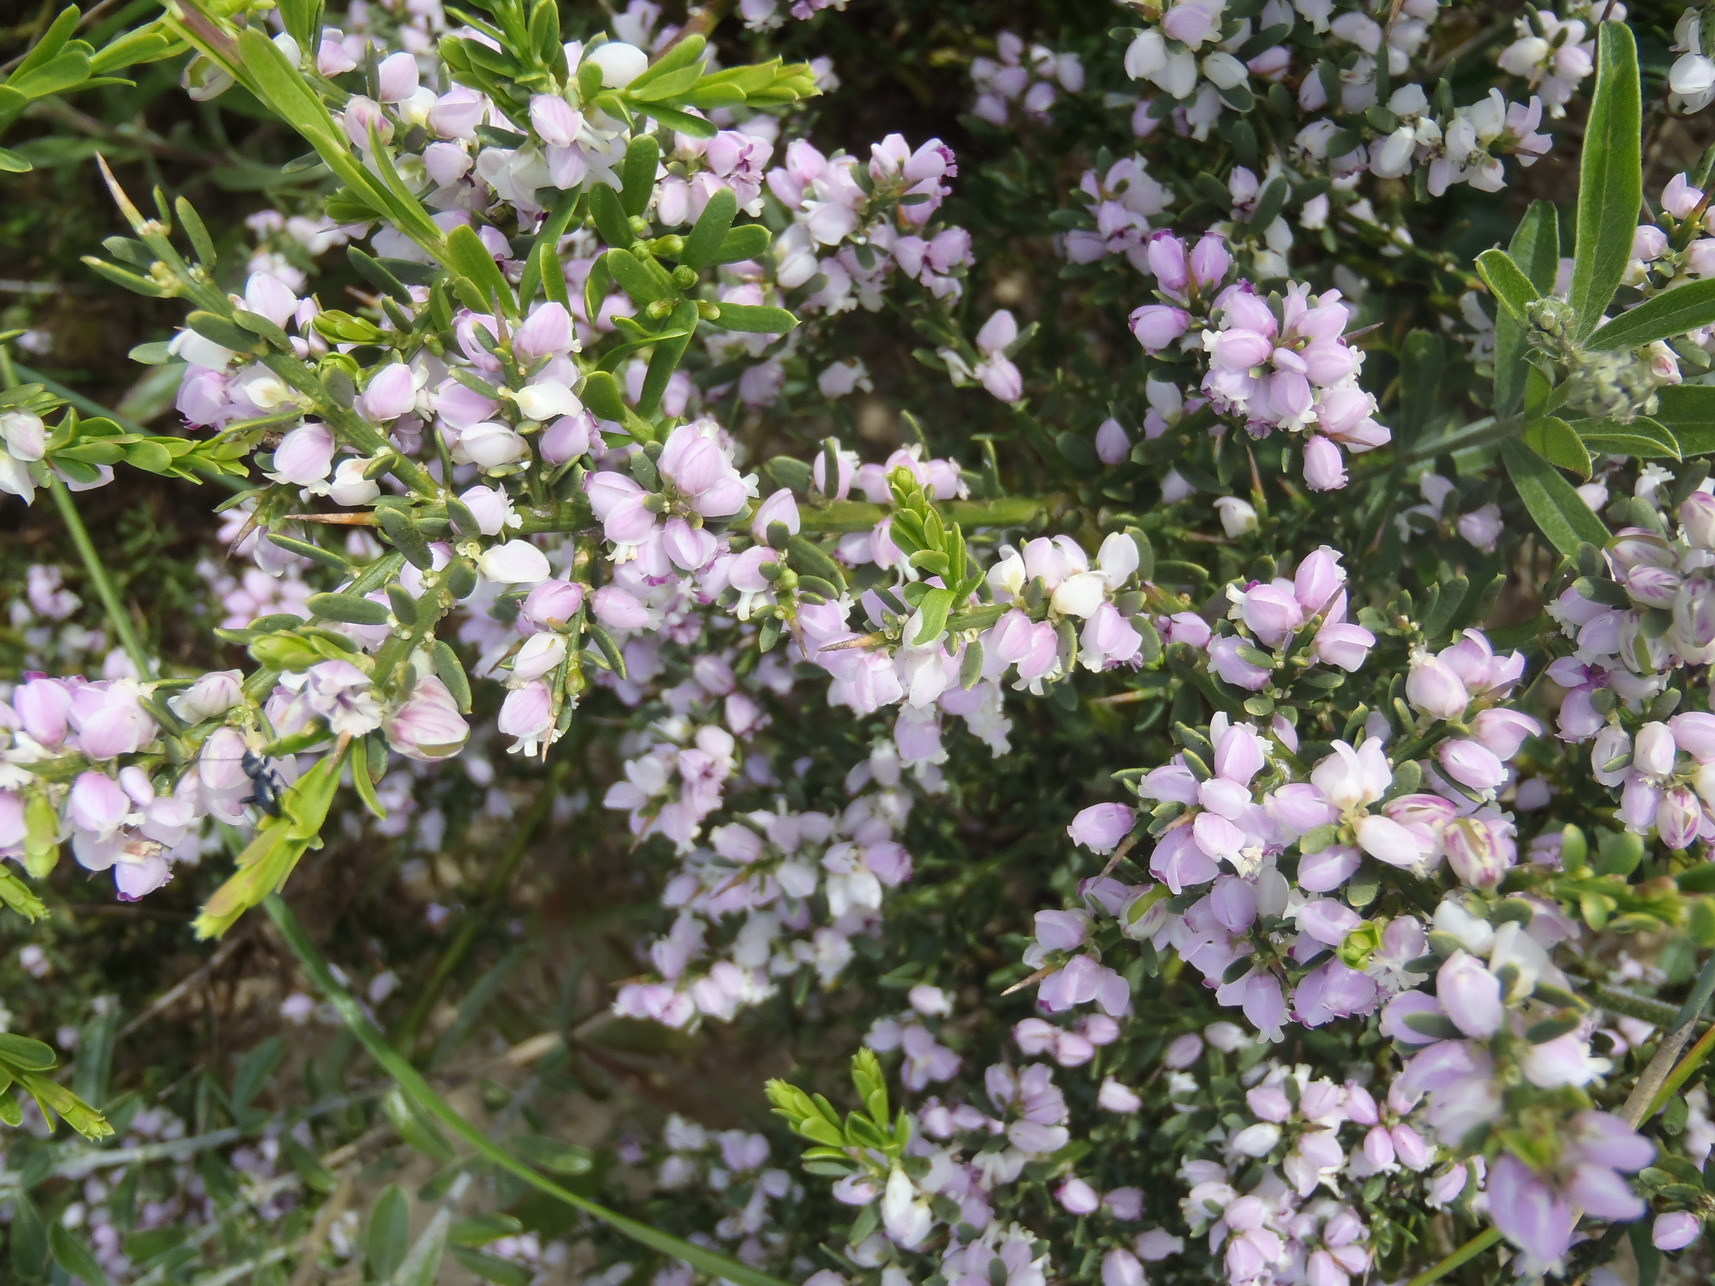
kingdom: Plantae
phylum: Tracheophyta
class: Magnoliopsida
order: Fabales
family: Polygalaceae
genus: Muraltia
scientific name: Muraltia spinosa
